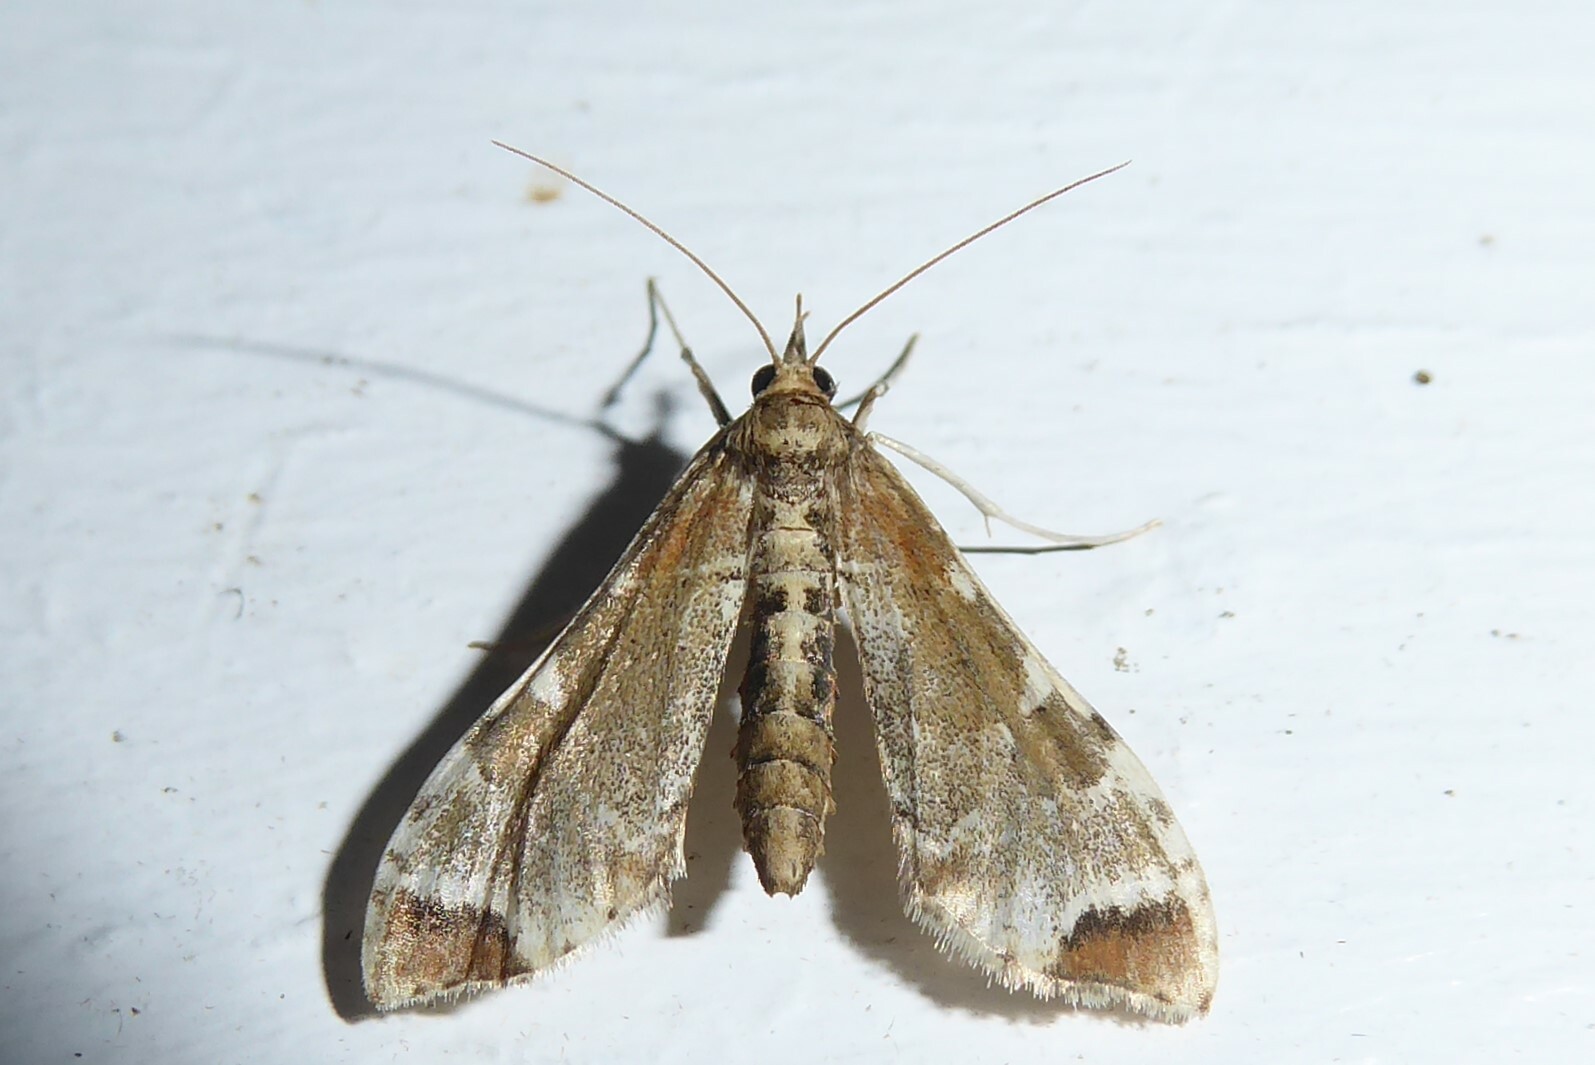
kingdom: Animalia
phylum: Arthropoda
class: Insecta
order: Lepidoptera
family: Crambidae
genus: Sceliodes
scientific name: Sceliodes cordalis
